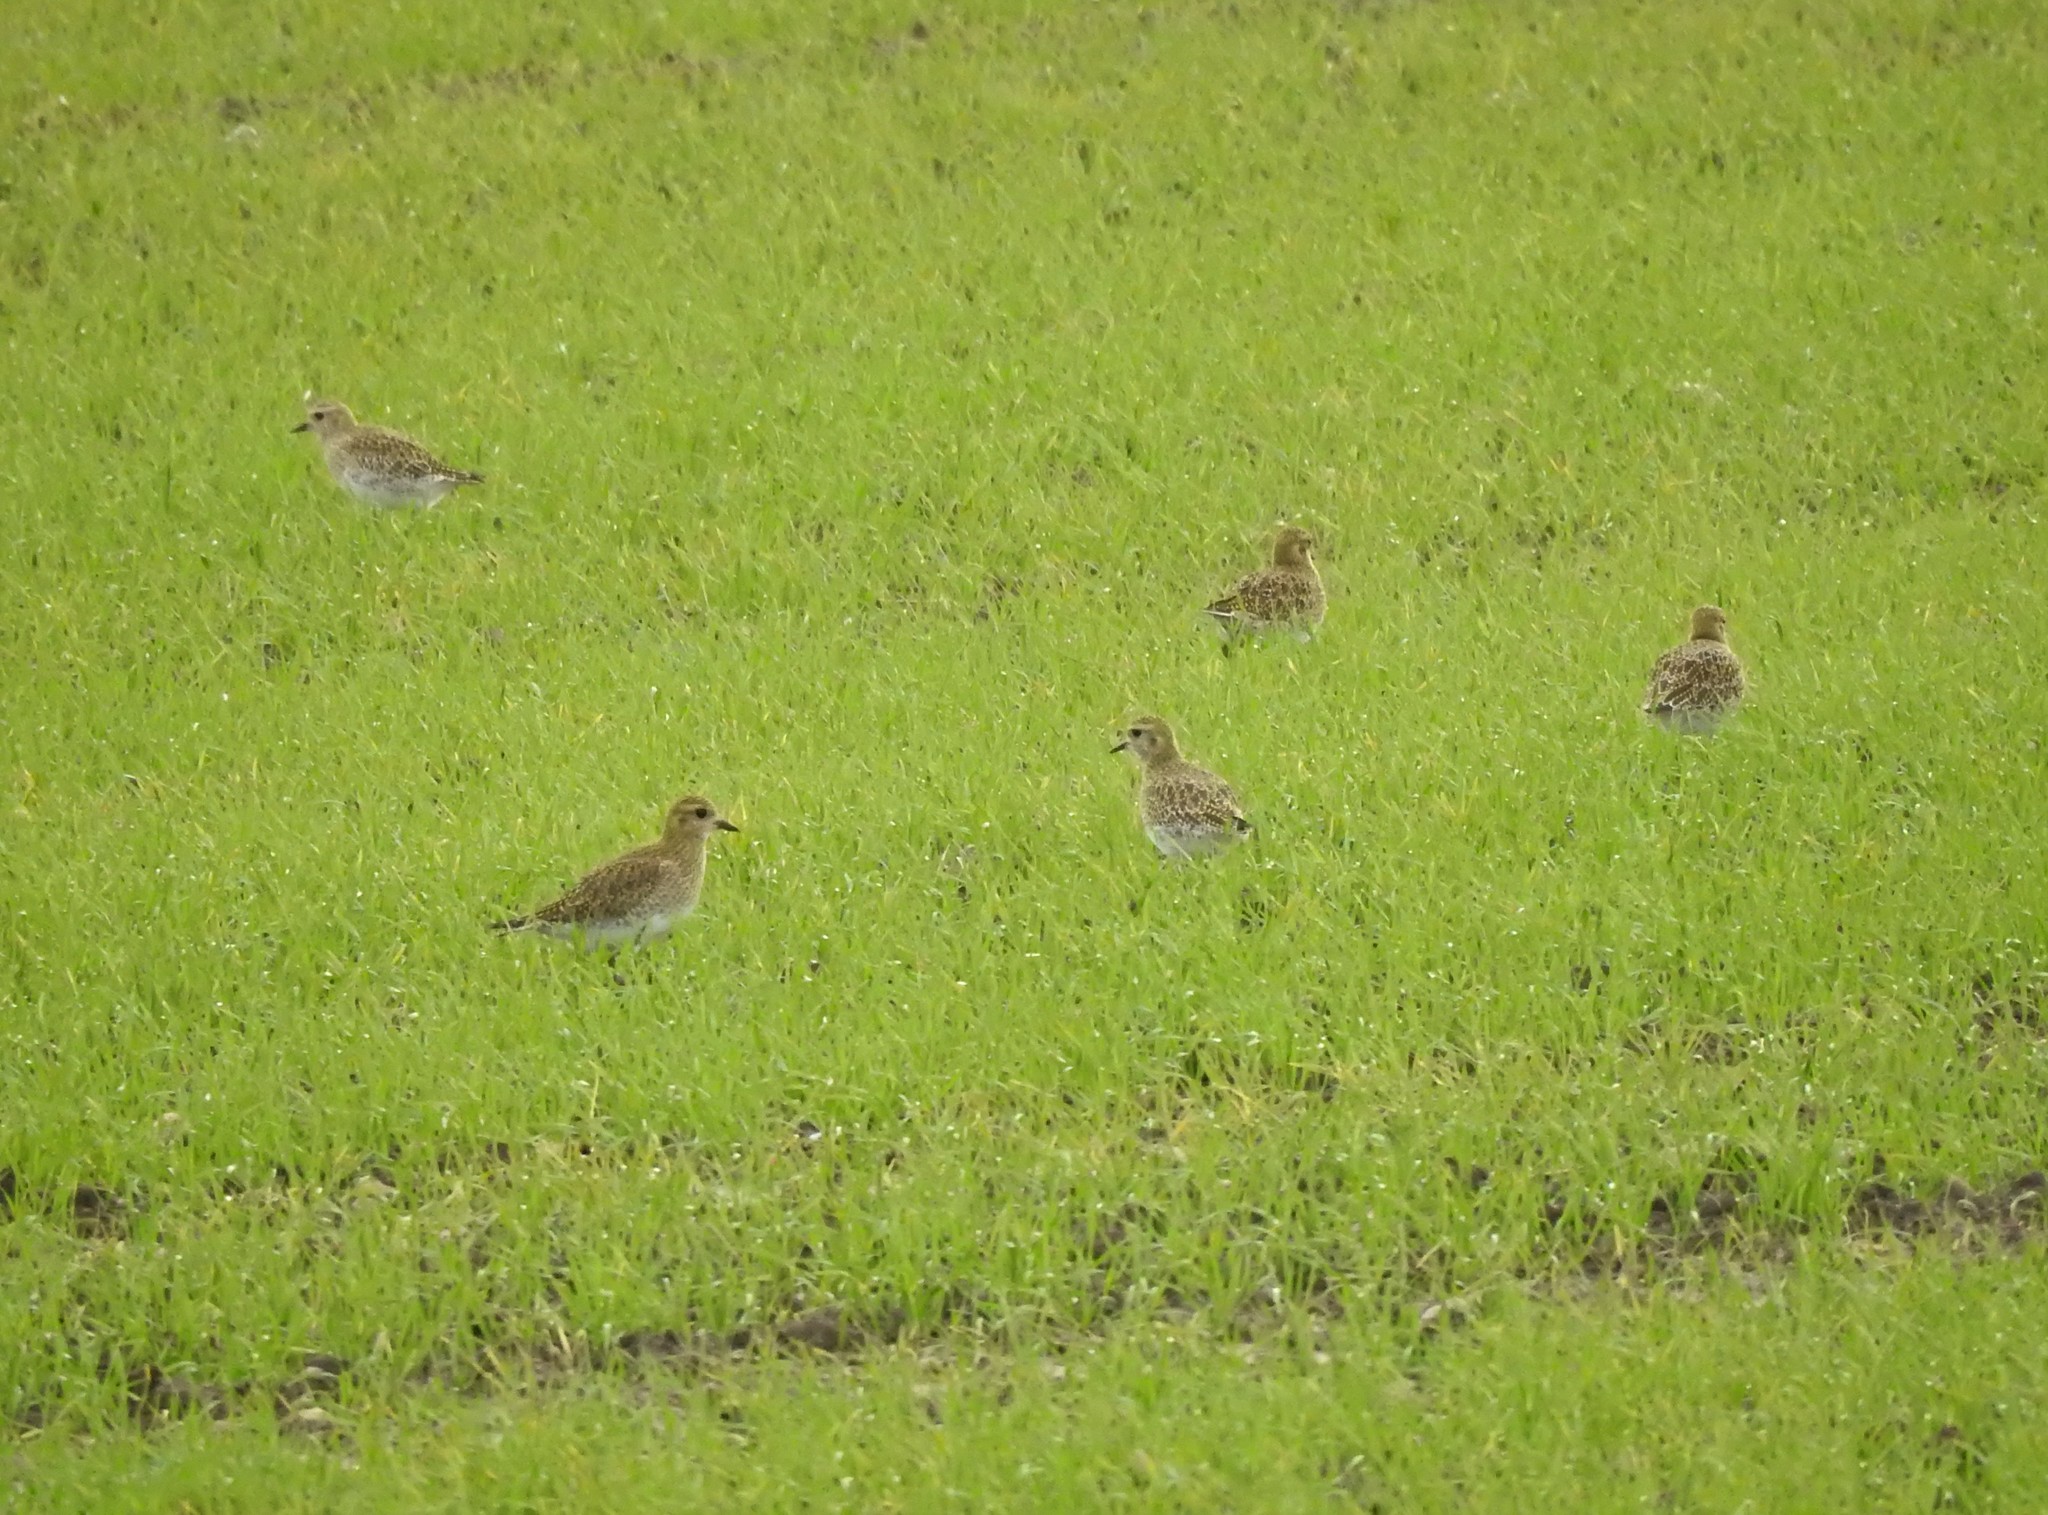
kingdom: Animalia
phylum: Chordata
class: Aves
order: Charadriiformes
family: Charadriidae
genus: Pluvialis
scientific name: Pluvialis apricaria
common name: European golden plover
